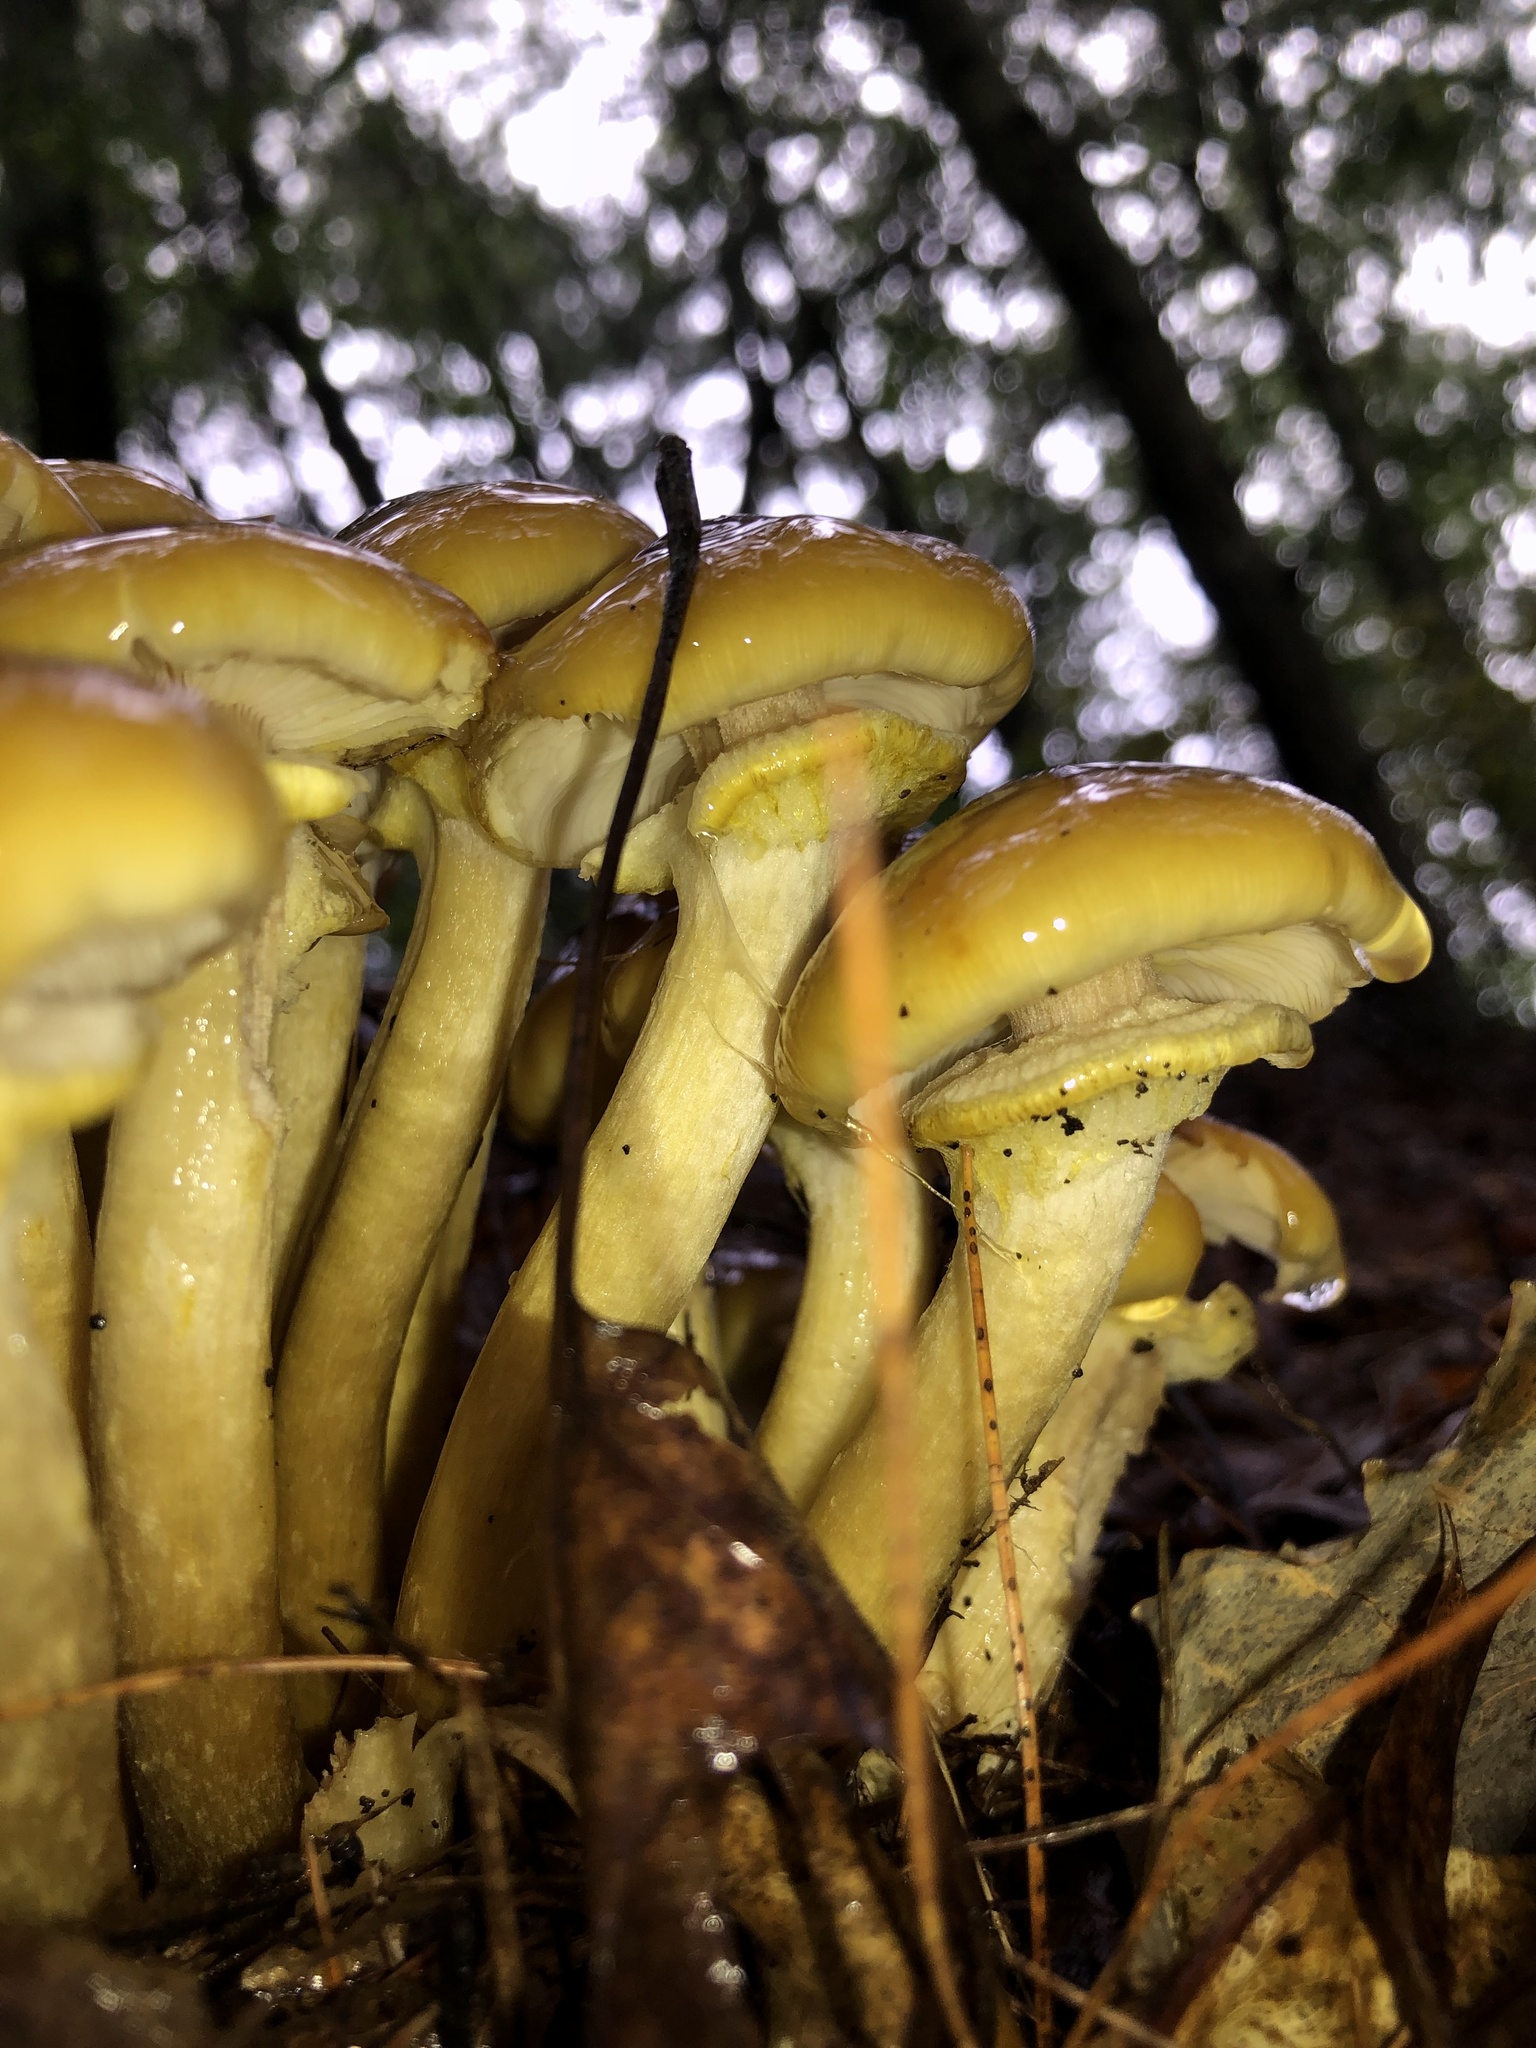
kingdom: Fungi
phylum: Basidiomycota
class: Agaricomycetes
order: Agaricales
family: Physalacriaceae
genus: Armillaria
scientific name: Armillaria mellea
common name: Honey fungus
